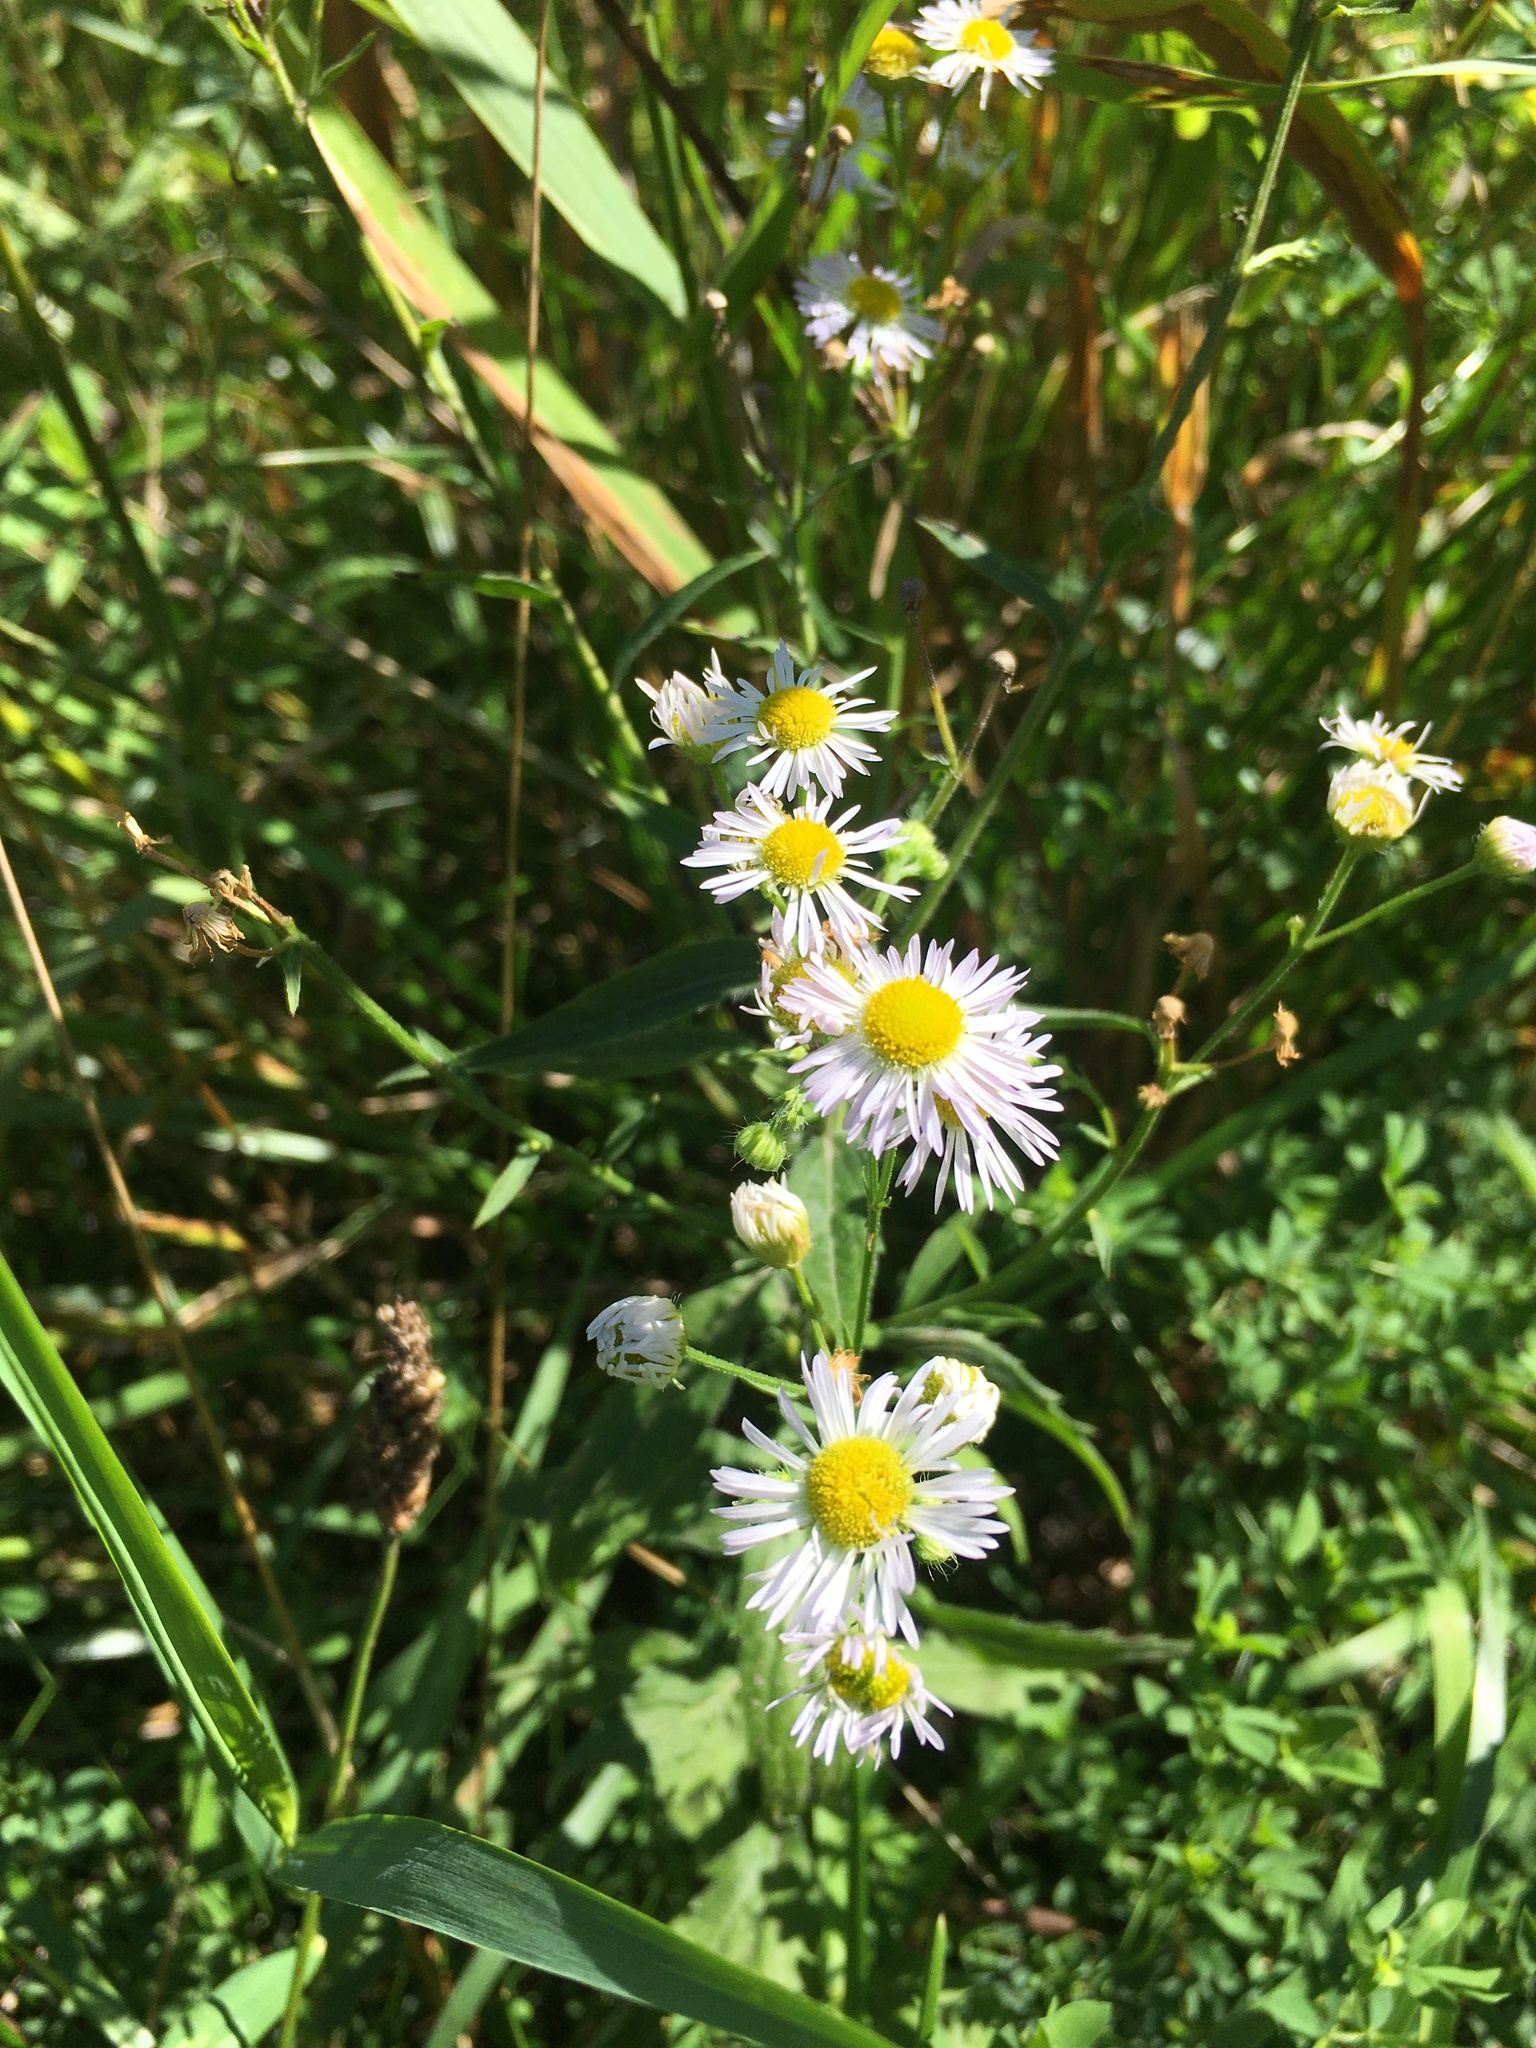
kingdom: Plantae
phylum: Tracheophyta
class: Magnoliopsida
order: Asterales
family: Asteraceae
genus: Erigeron
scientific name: Erigeron annuus
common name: Tall fleabane
